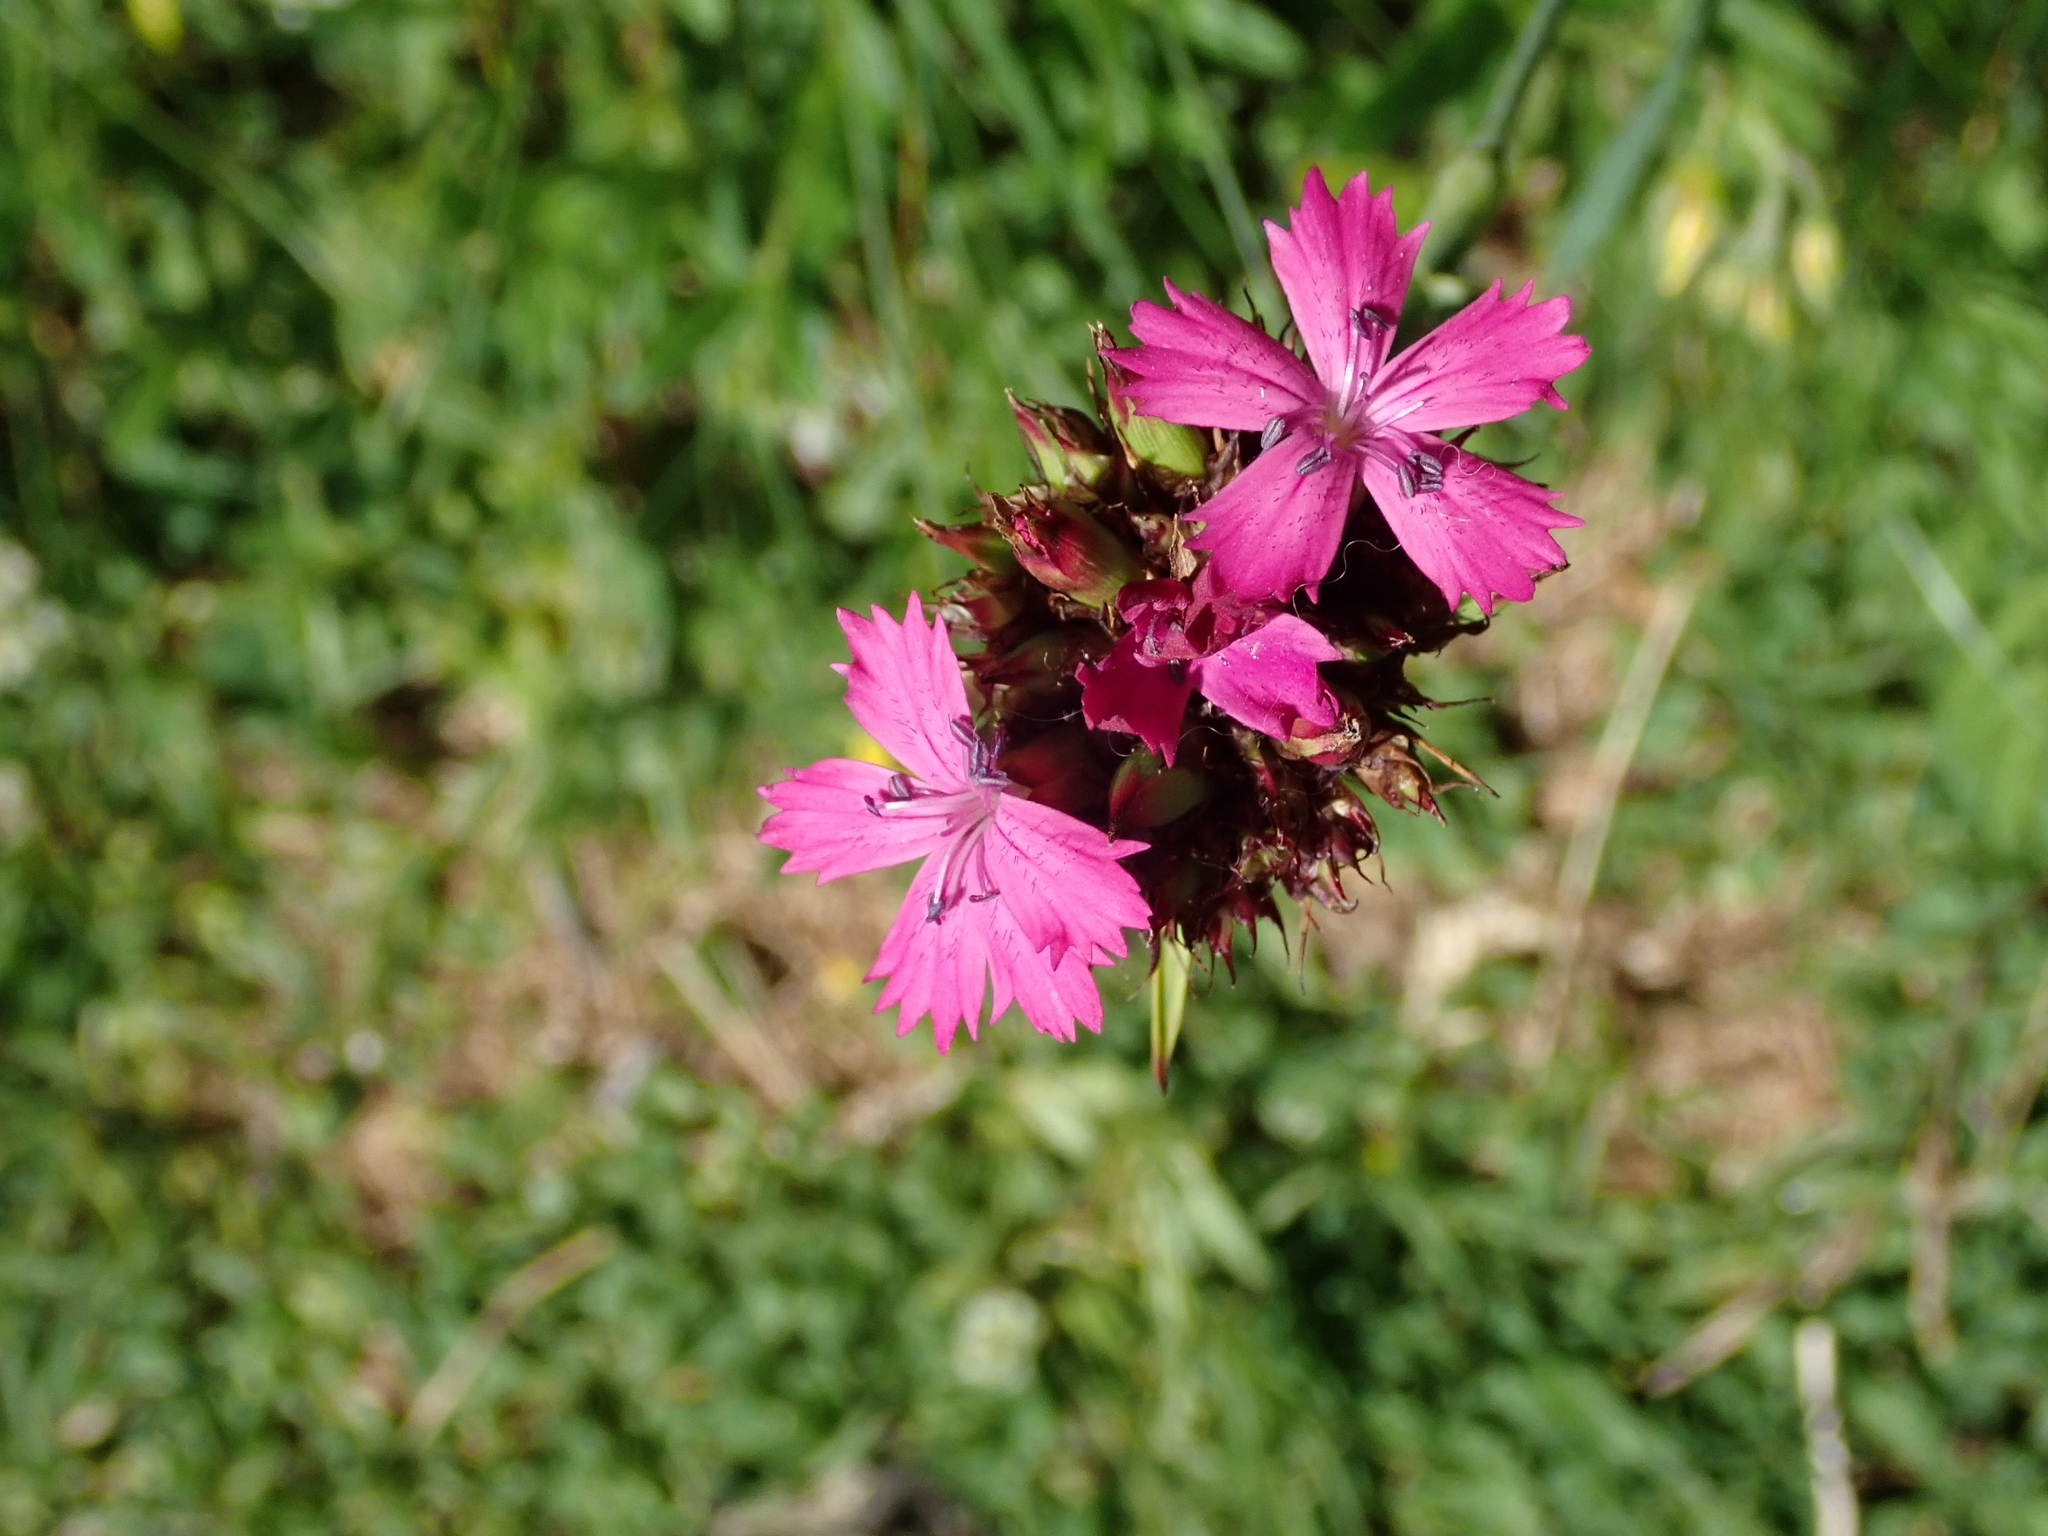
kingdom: Plantae
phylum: Tracheophyta
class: Magnoliopsida
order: Caryophyllales
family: Caryophyllaceae
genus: Dianthus
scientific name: Dianthus carthusianorum
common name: Carthusian pink
